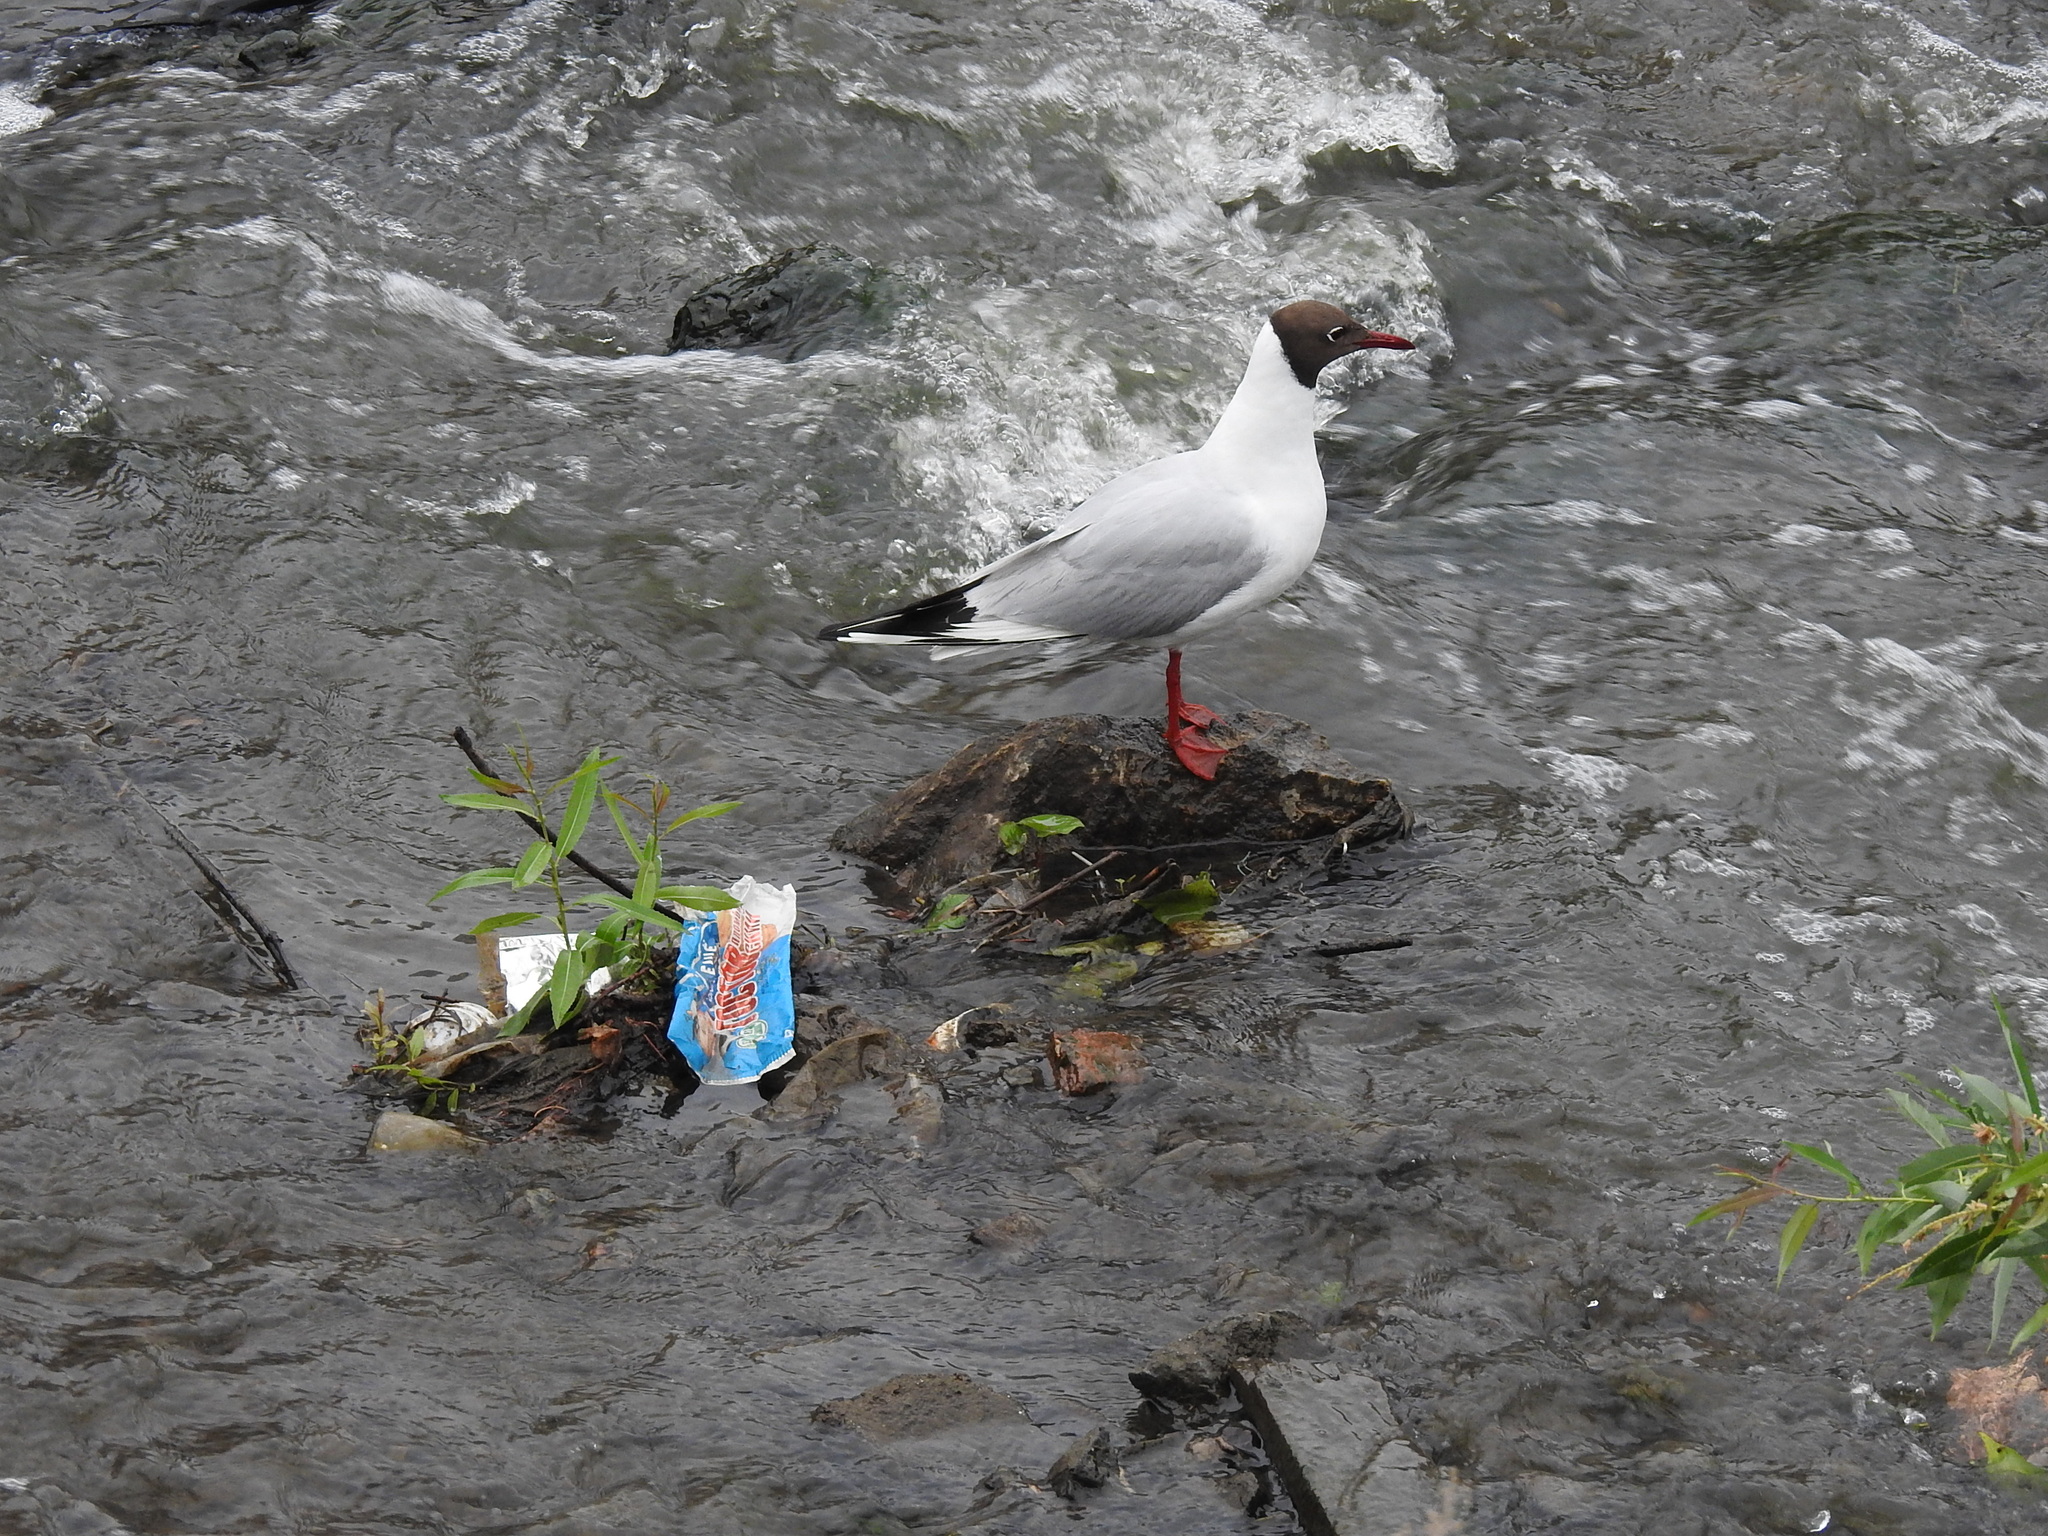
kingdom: Animalia
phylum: Chordata
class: Aves
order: Charadriiformes
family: Laridae
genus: Chroicocephalus
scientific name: Chroicocephalus ridibundus
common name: Black-headed gull
